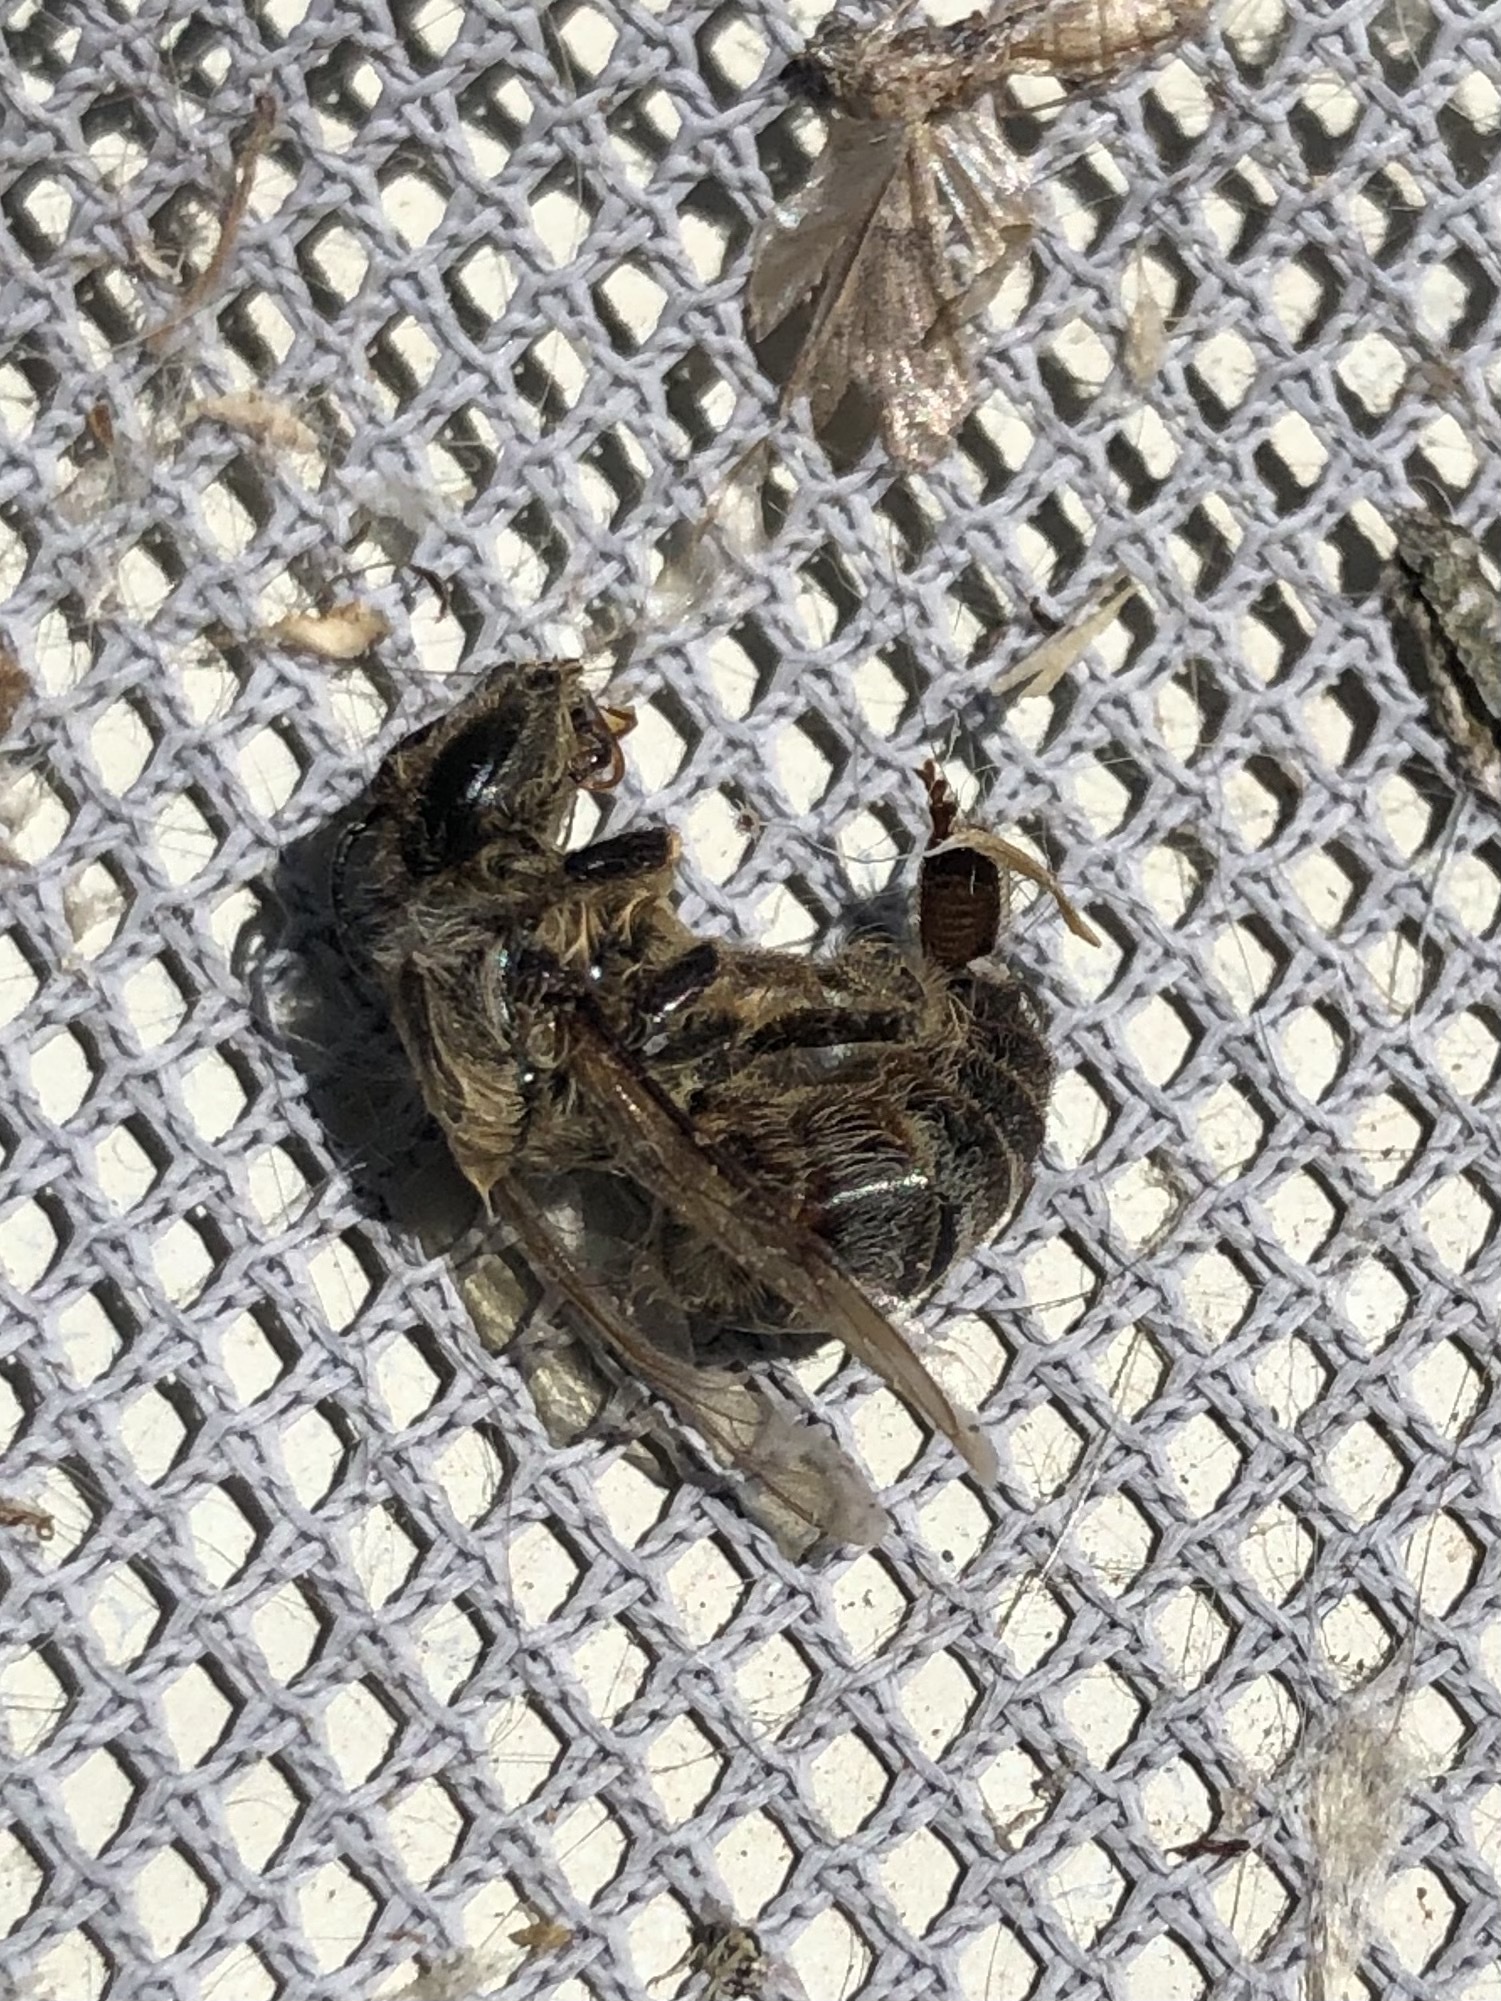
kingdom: Animalia
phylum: Arthropoda
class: Insecta
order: Hymenoptera
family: Apidae
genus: Apis
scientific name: Apis mellifera
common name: Honey bee
